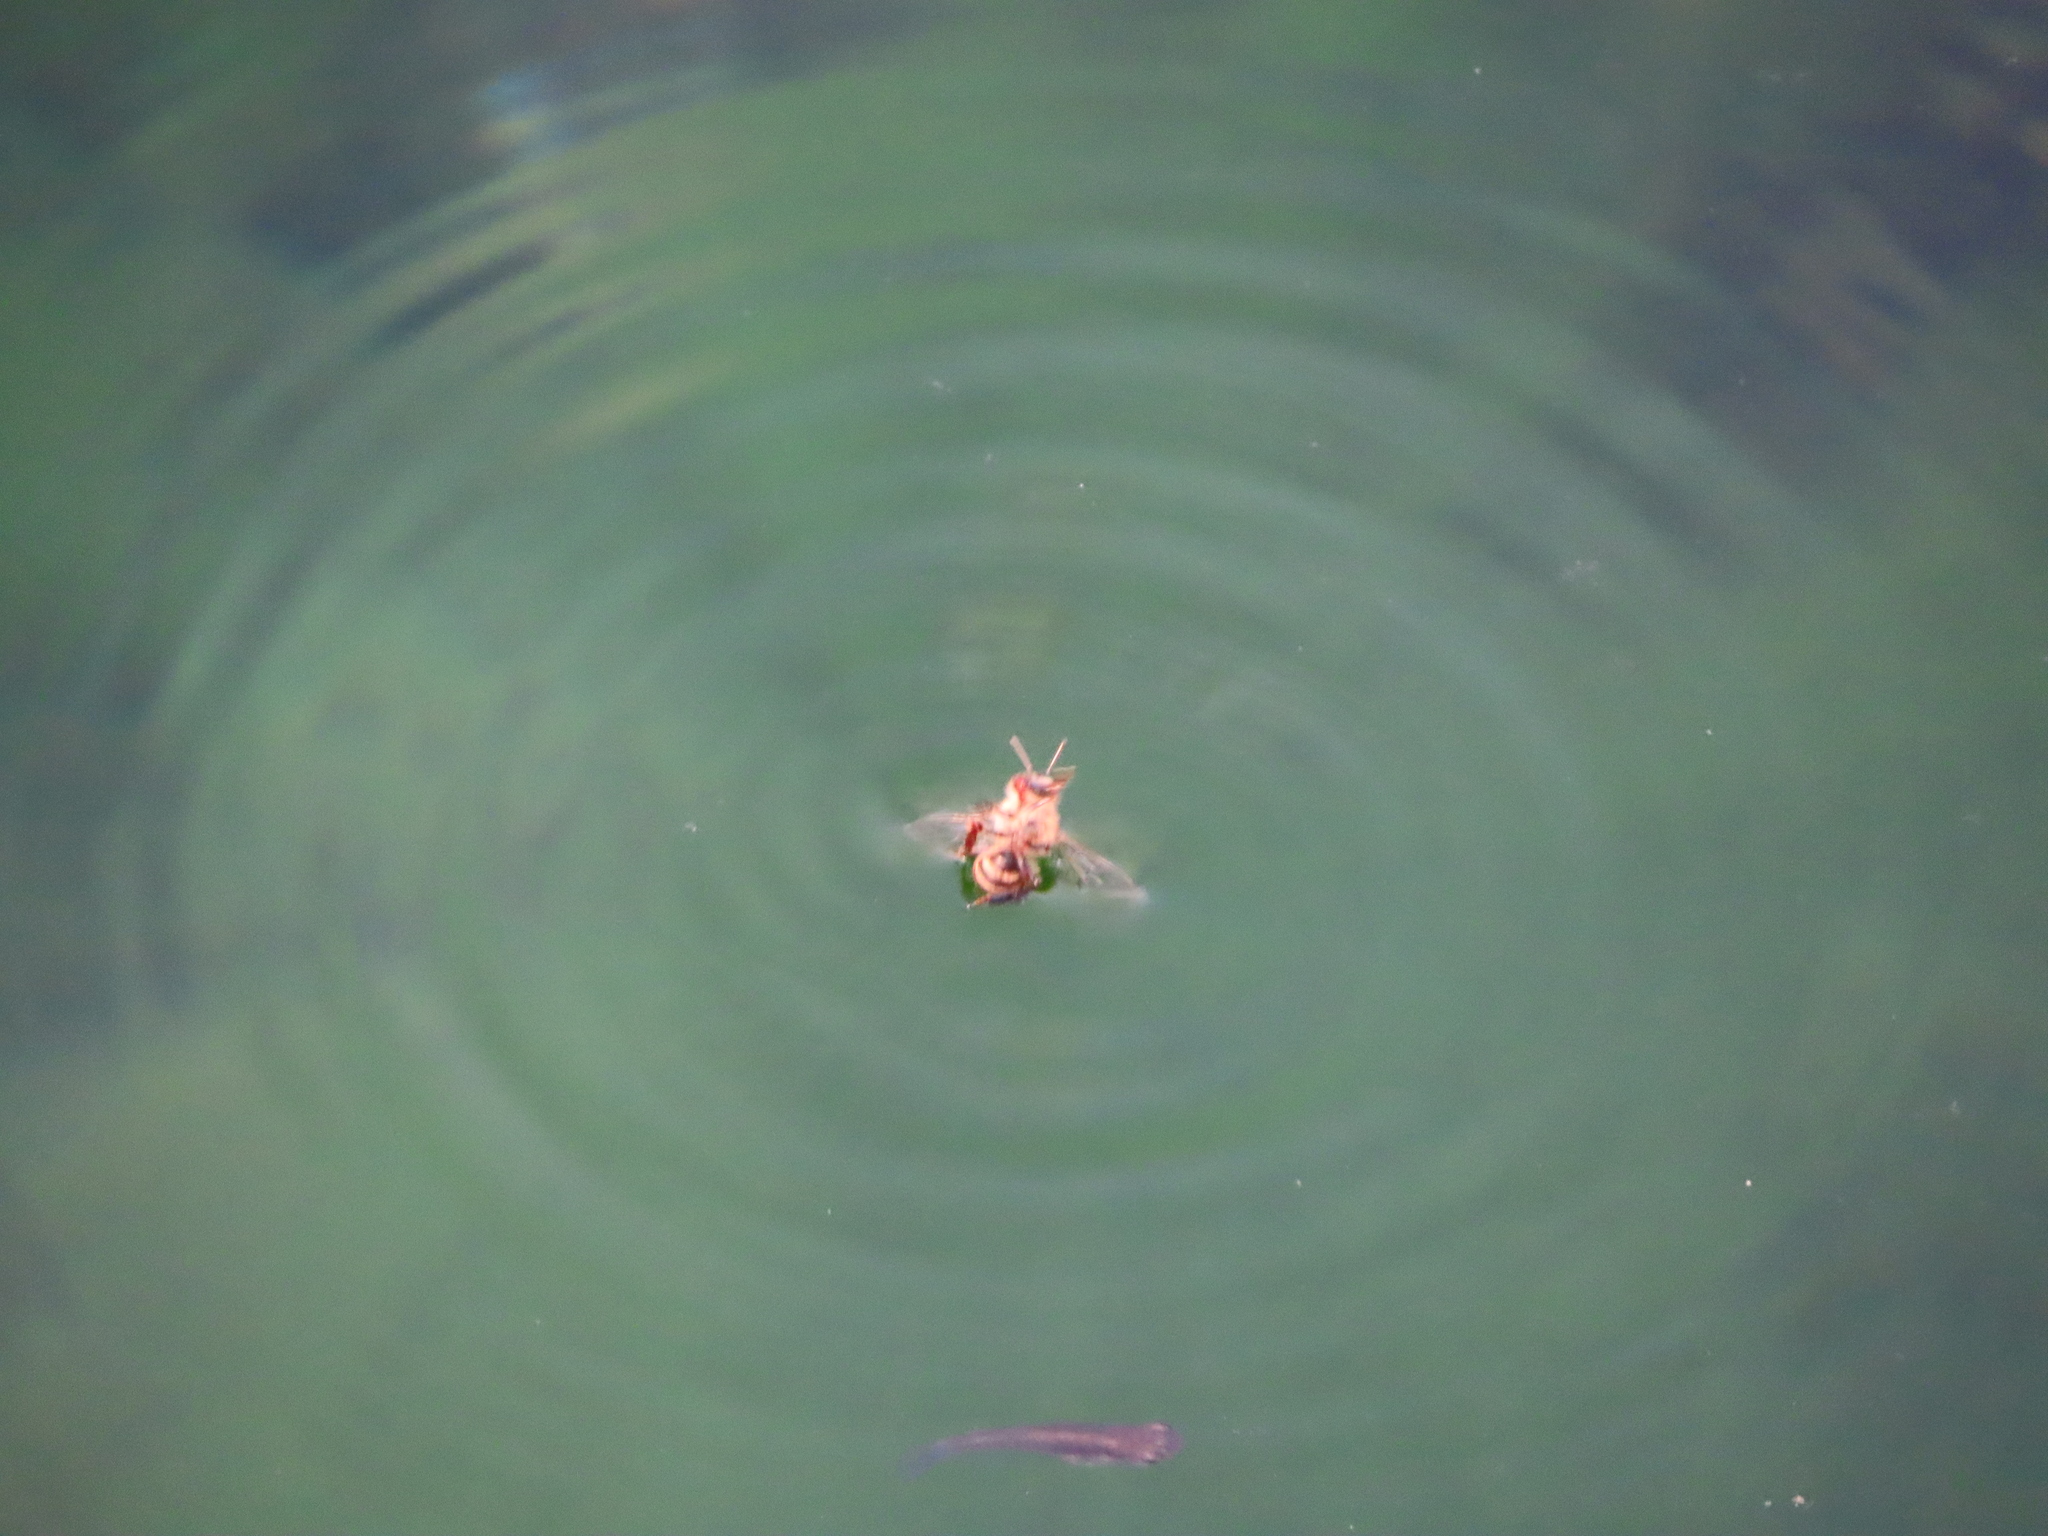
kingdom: Animalia
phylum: Arthropoda
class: Insecta
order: Hymenoptera
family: Apidae
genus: Apis
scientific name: Apis mellifera
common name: Honey bee
